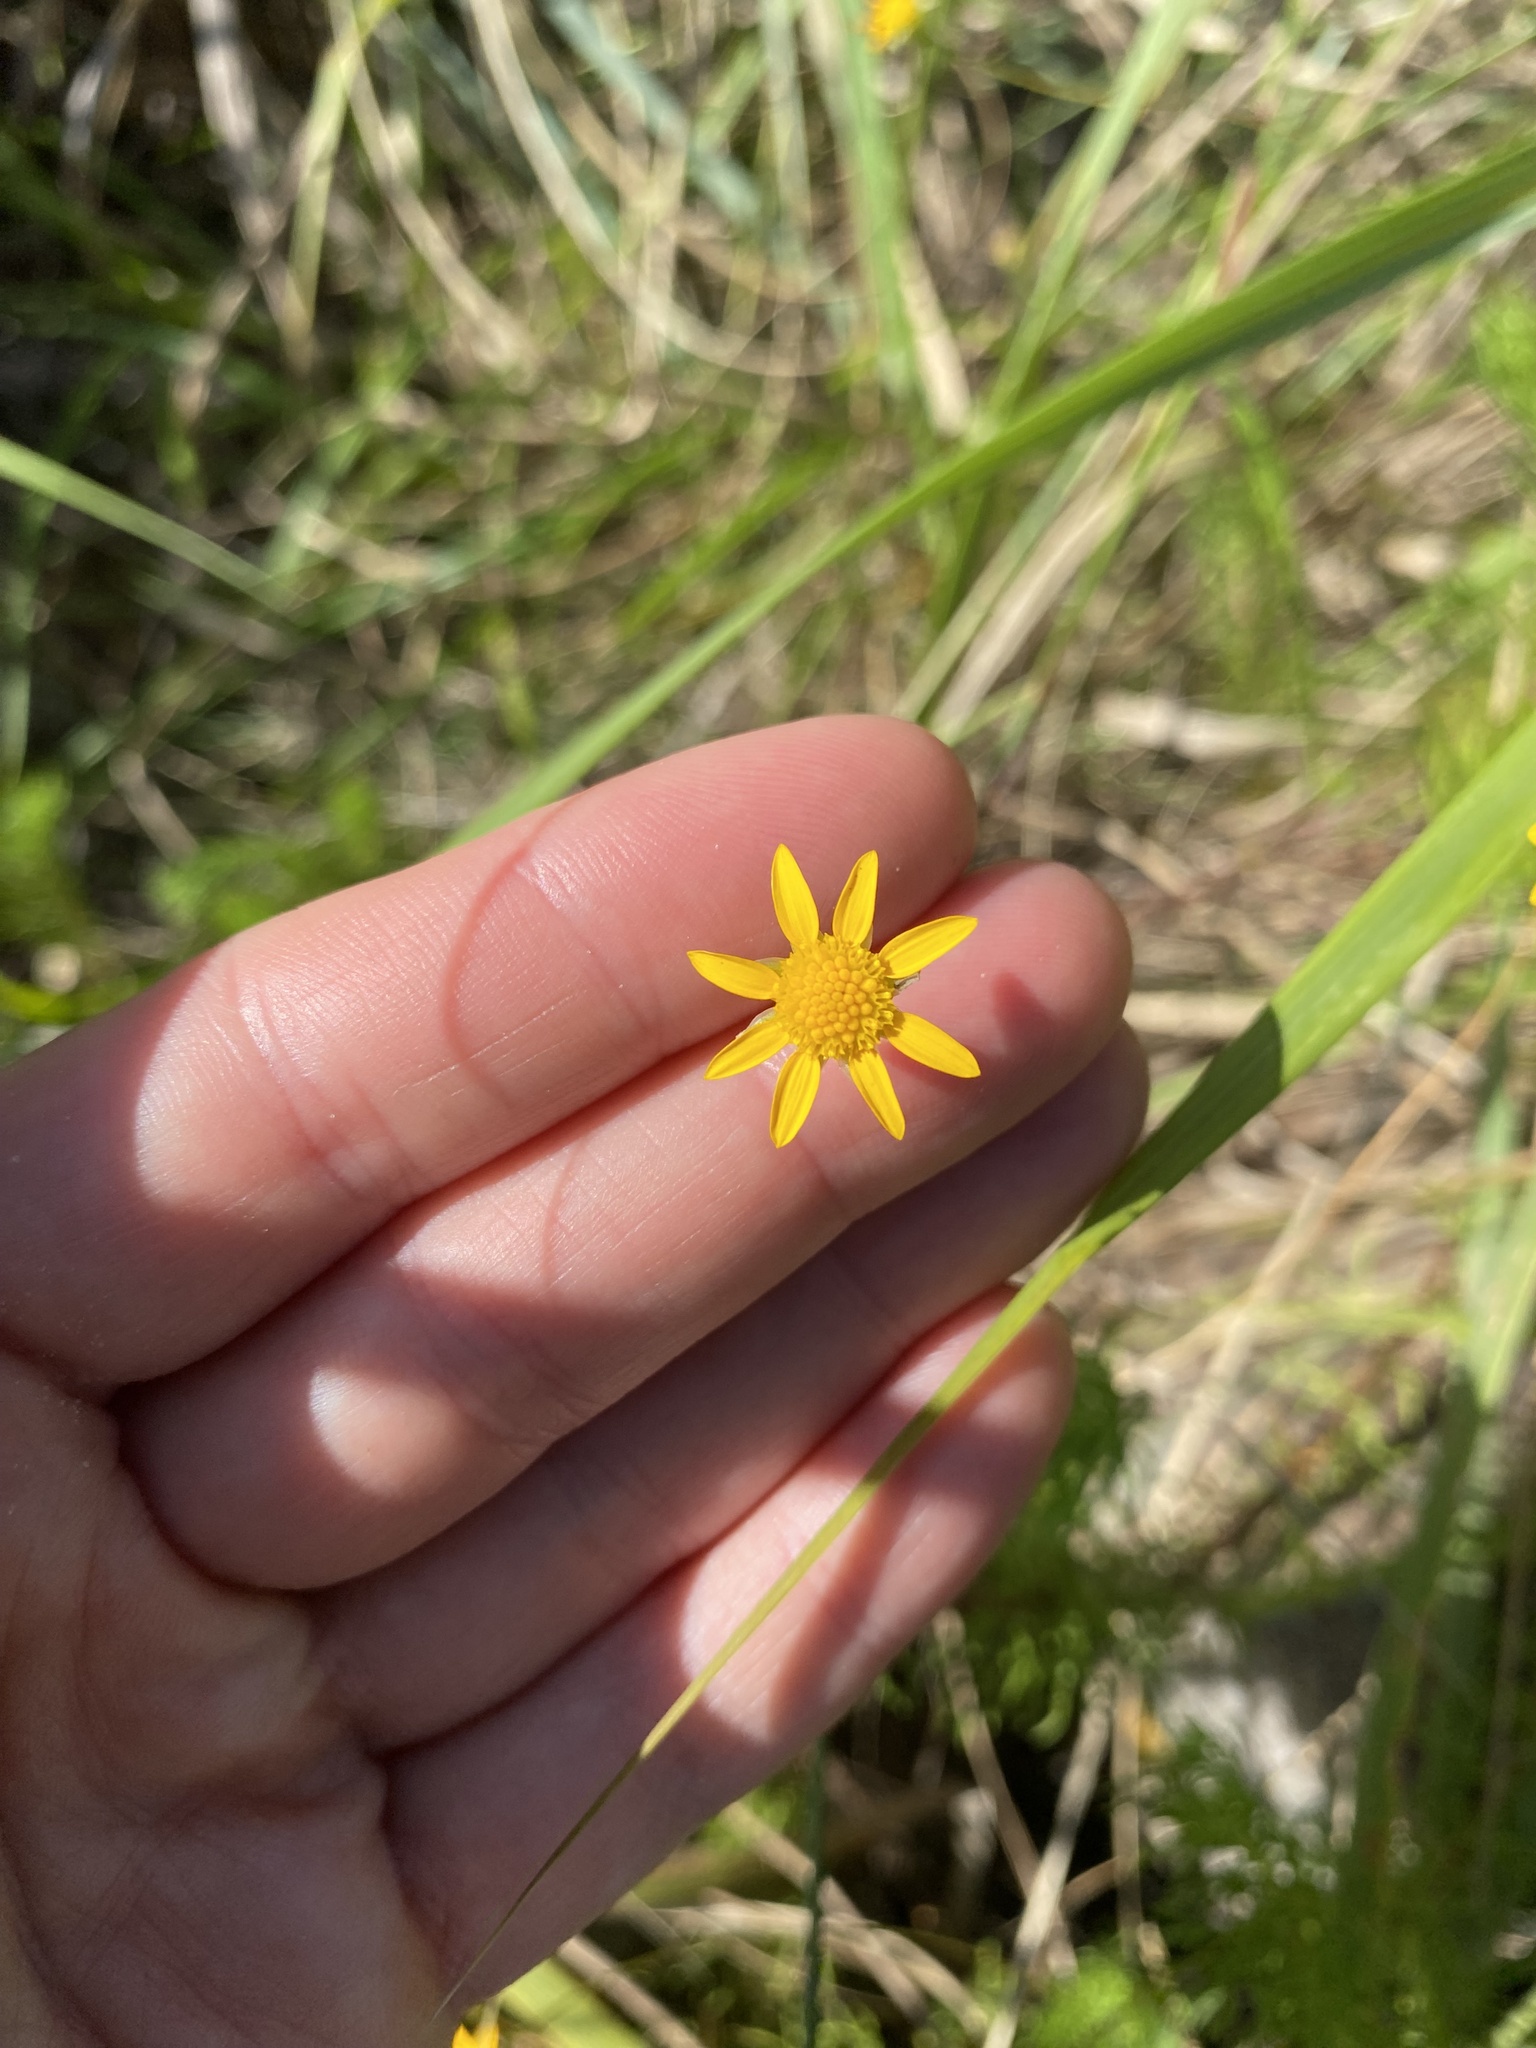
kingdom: Plantae
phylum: Tracheophyta
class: Magnoliopsida
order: Asterales
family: Asteraceae
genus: Ursinia
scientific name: Ursinia tenuifolia
